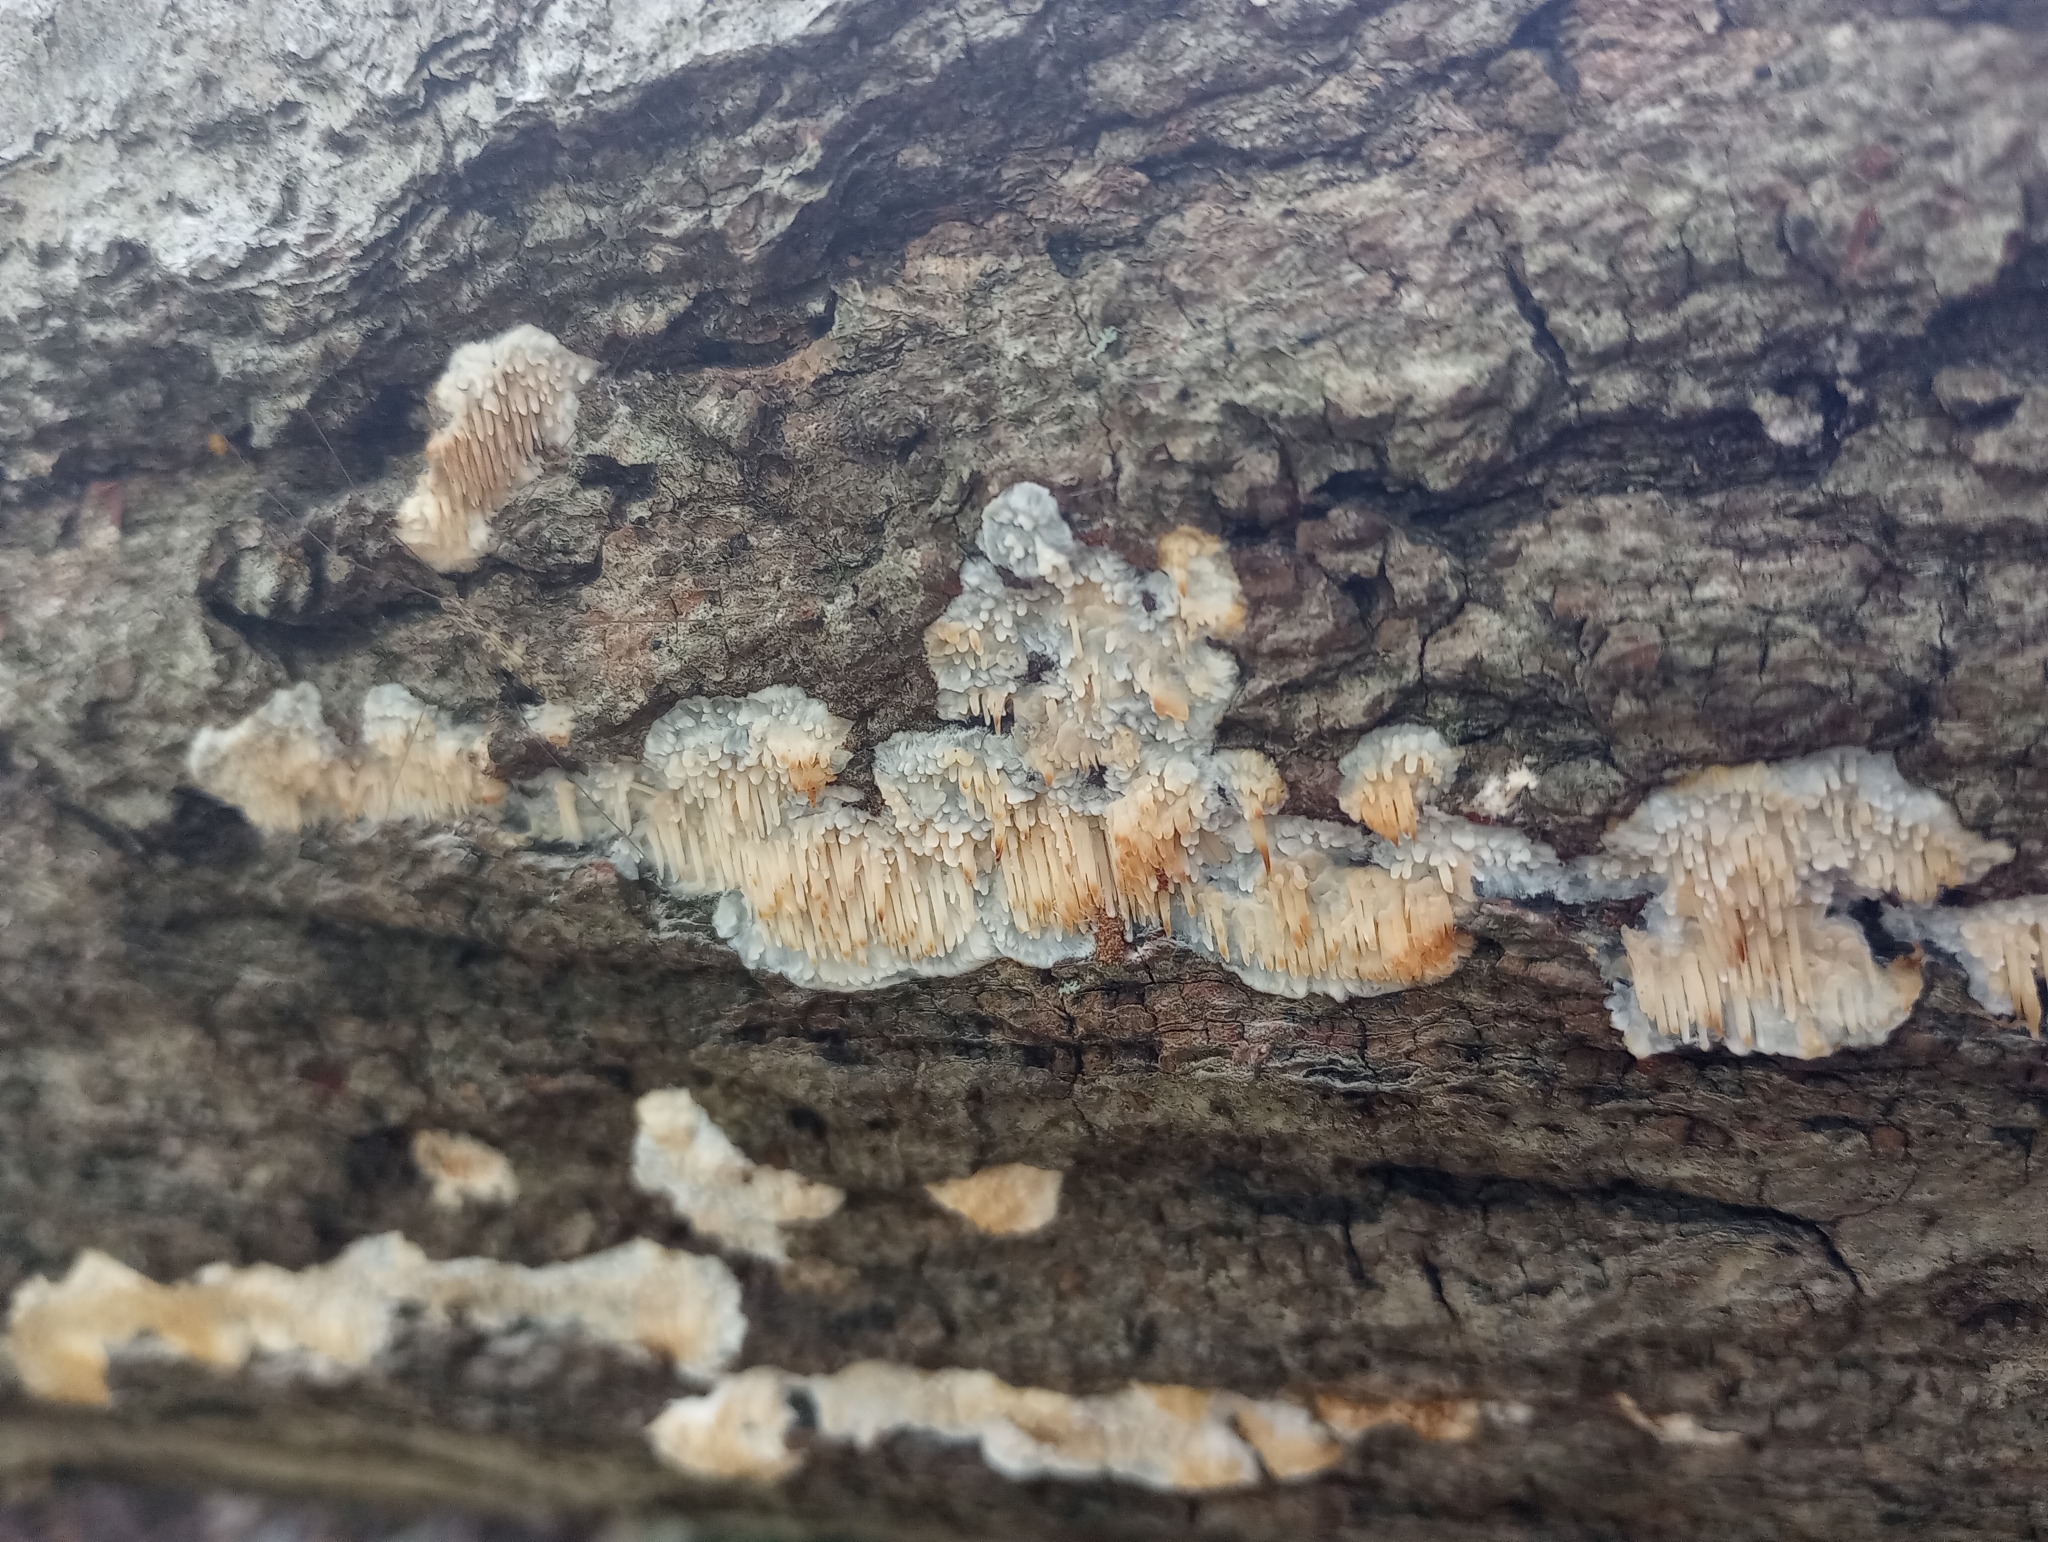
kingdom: Fungi
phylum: Basidiomycota
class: Agaricomycetes
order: Agaricales
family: Radulomycetaceae
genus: Radulomyces
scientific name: Radulomyces copelandii
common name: Asian beauty
